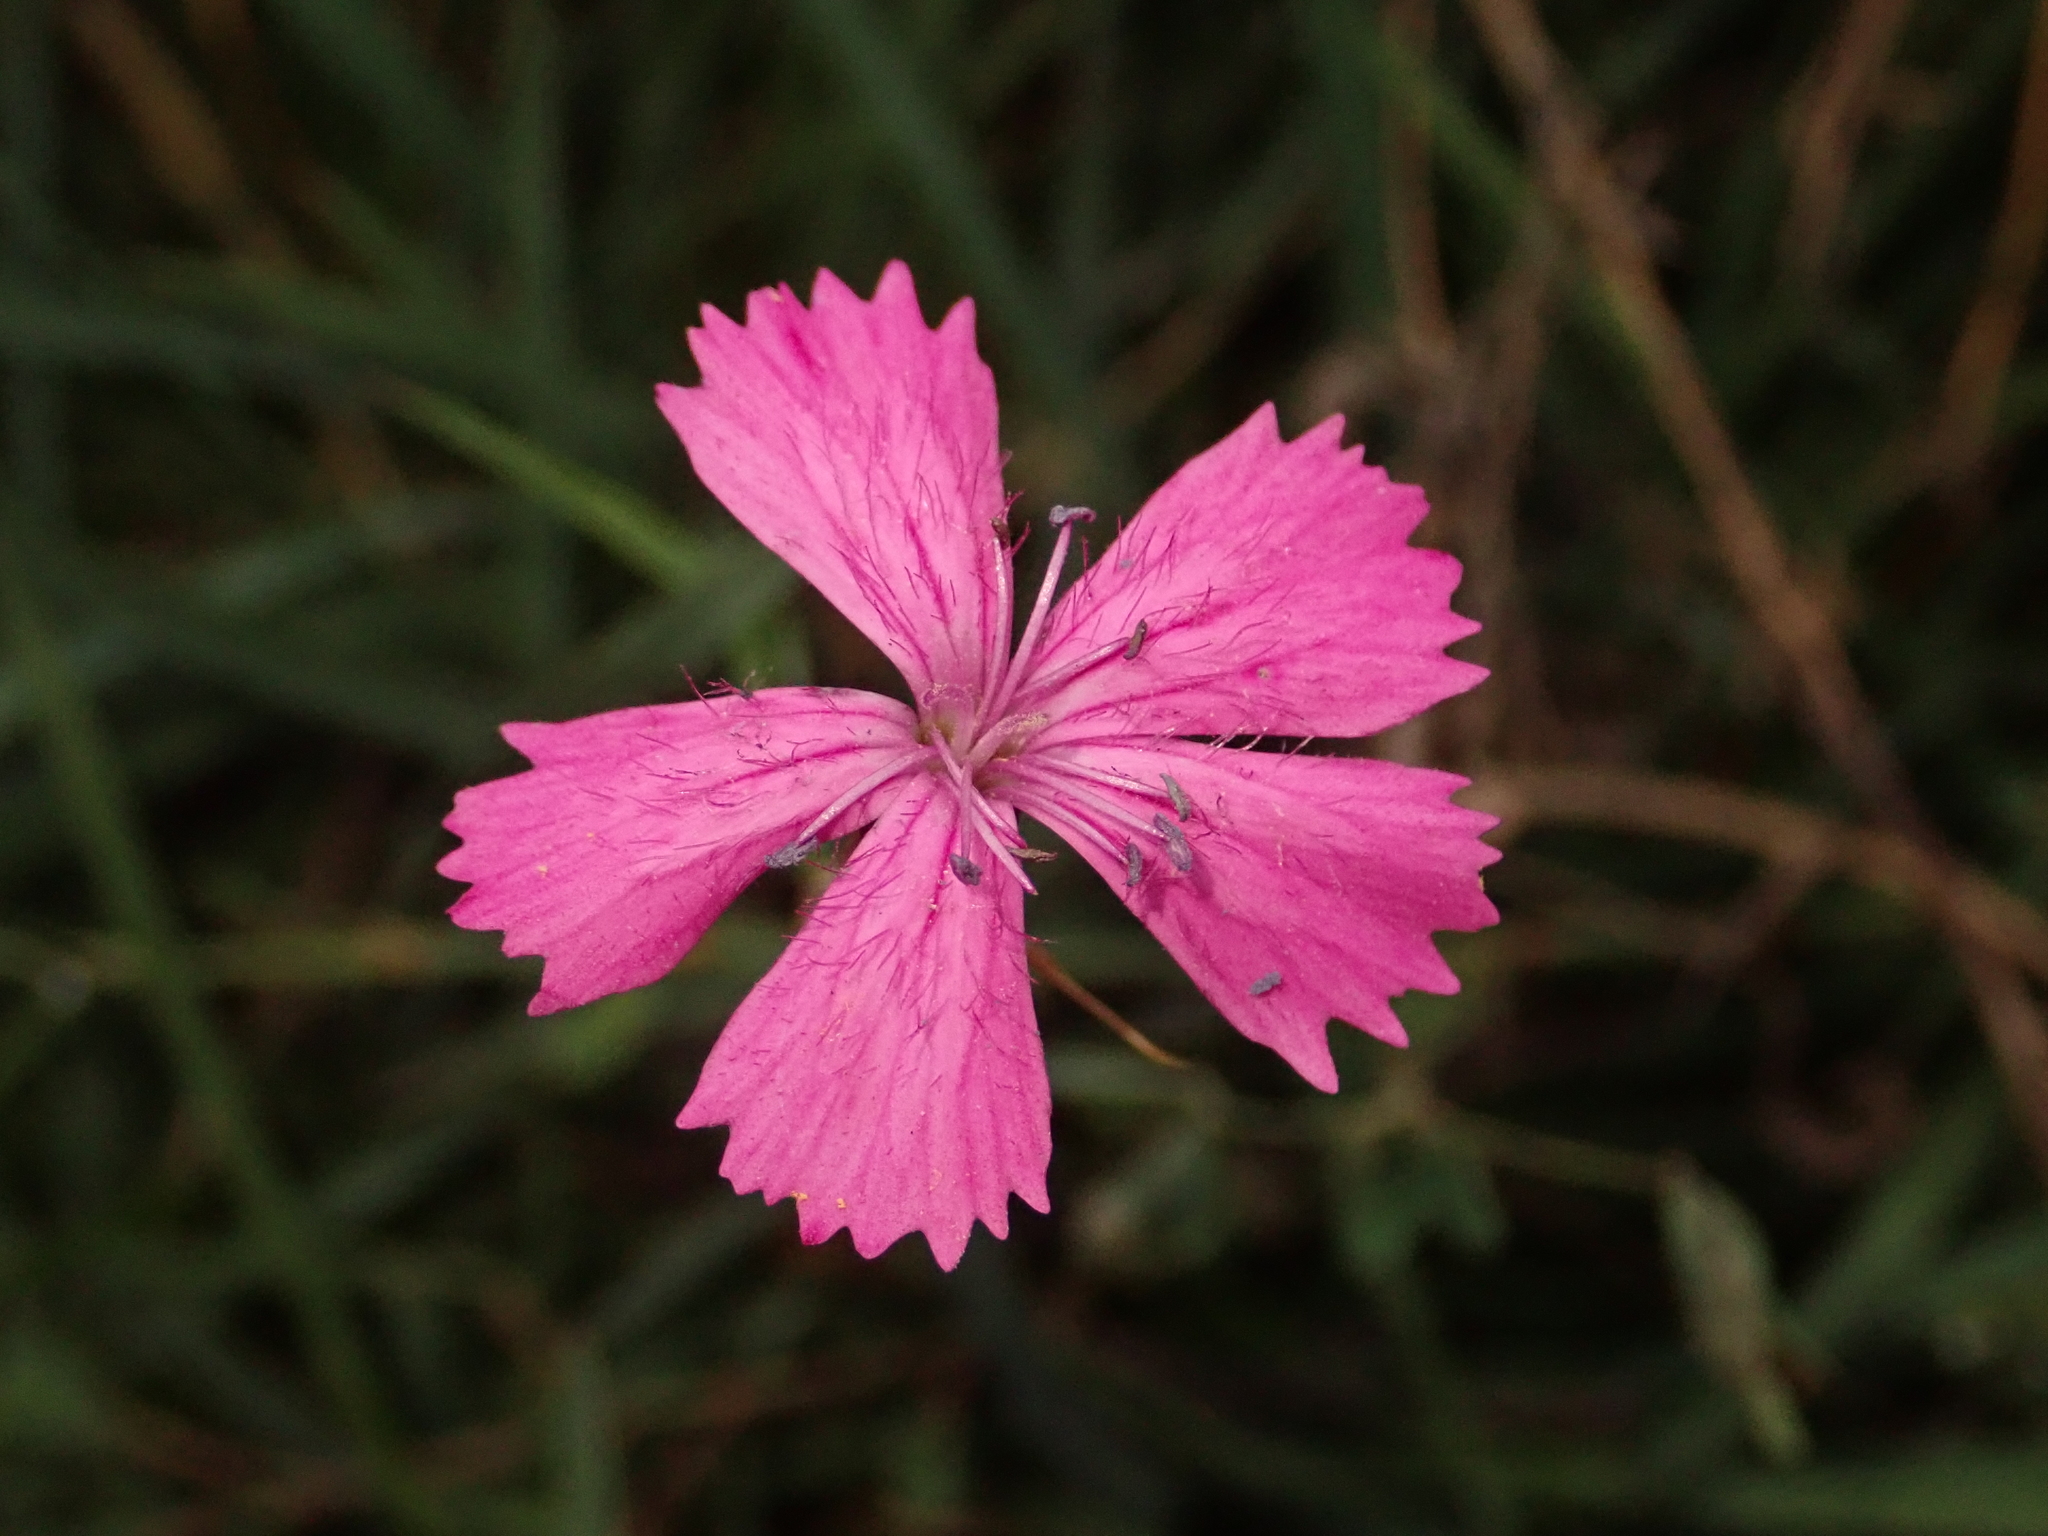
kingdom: Plantae
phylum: Tracheophyta
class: Magnoliopsida
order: Caryophyllales
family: Caryophyllaceae
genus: Dianthus
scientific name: Dianthus carthusianorum
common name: Carthusian pink
